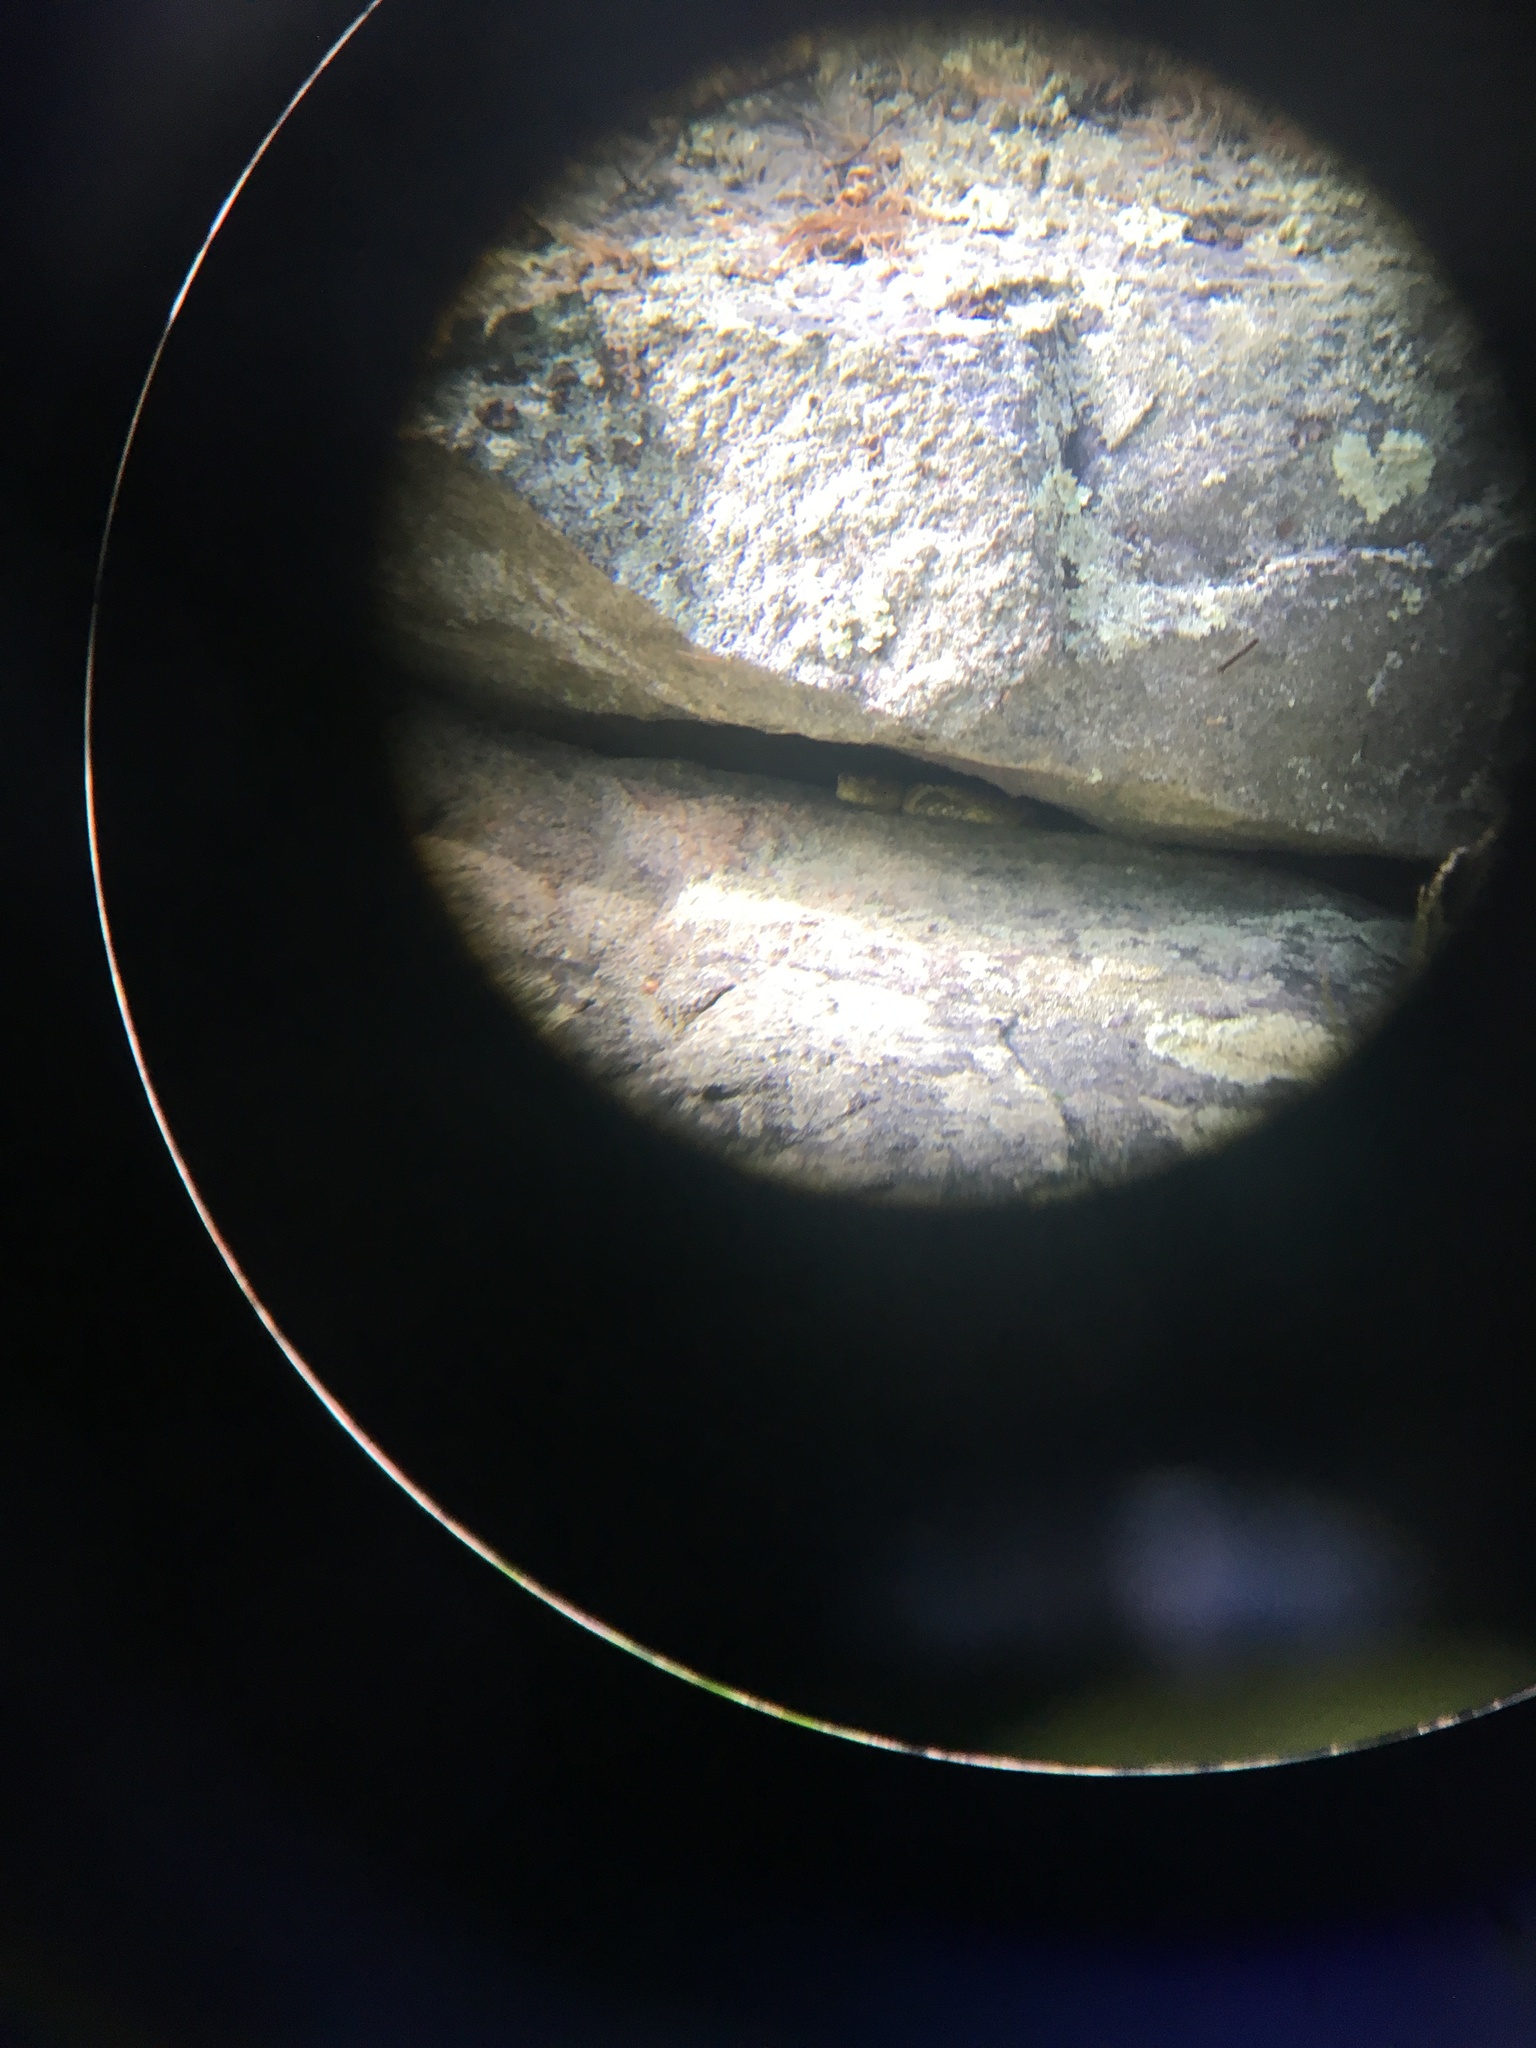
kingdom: Animalia
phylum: Chordata
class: Squamata
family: Viperidae
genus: Crotalus
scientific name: Crotalus horridus
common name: Timber rattlesnake
